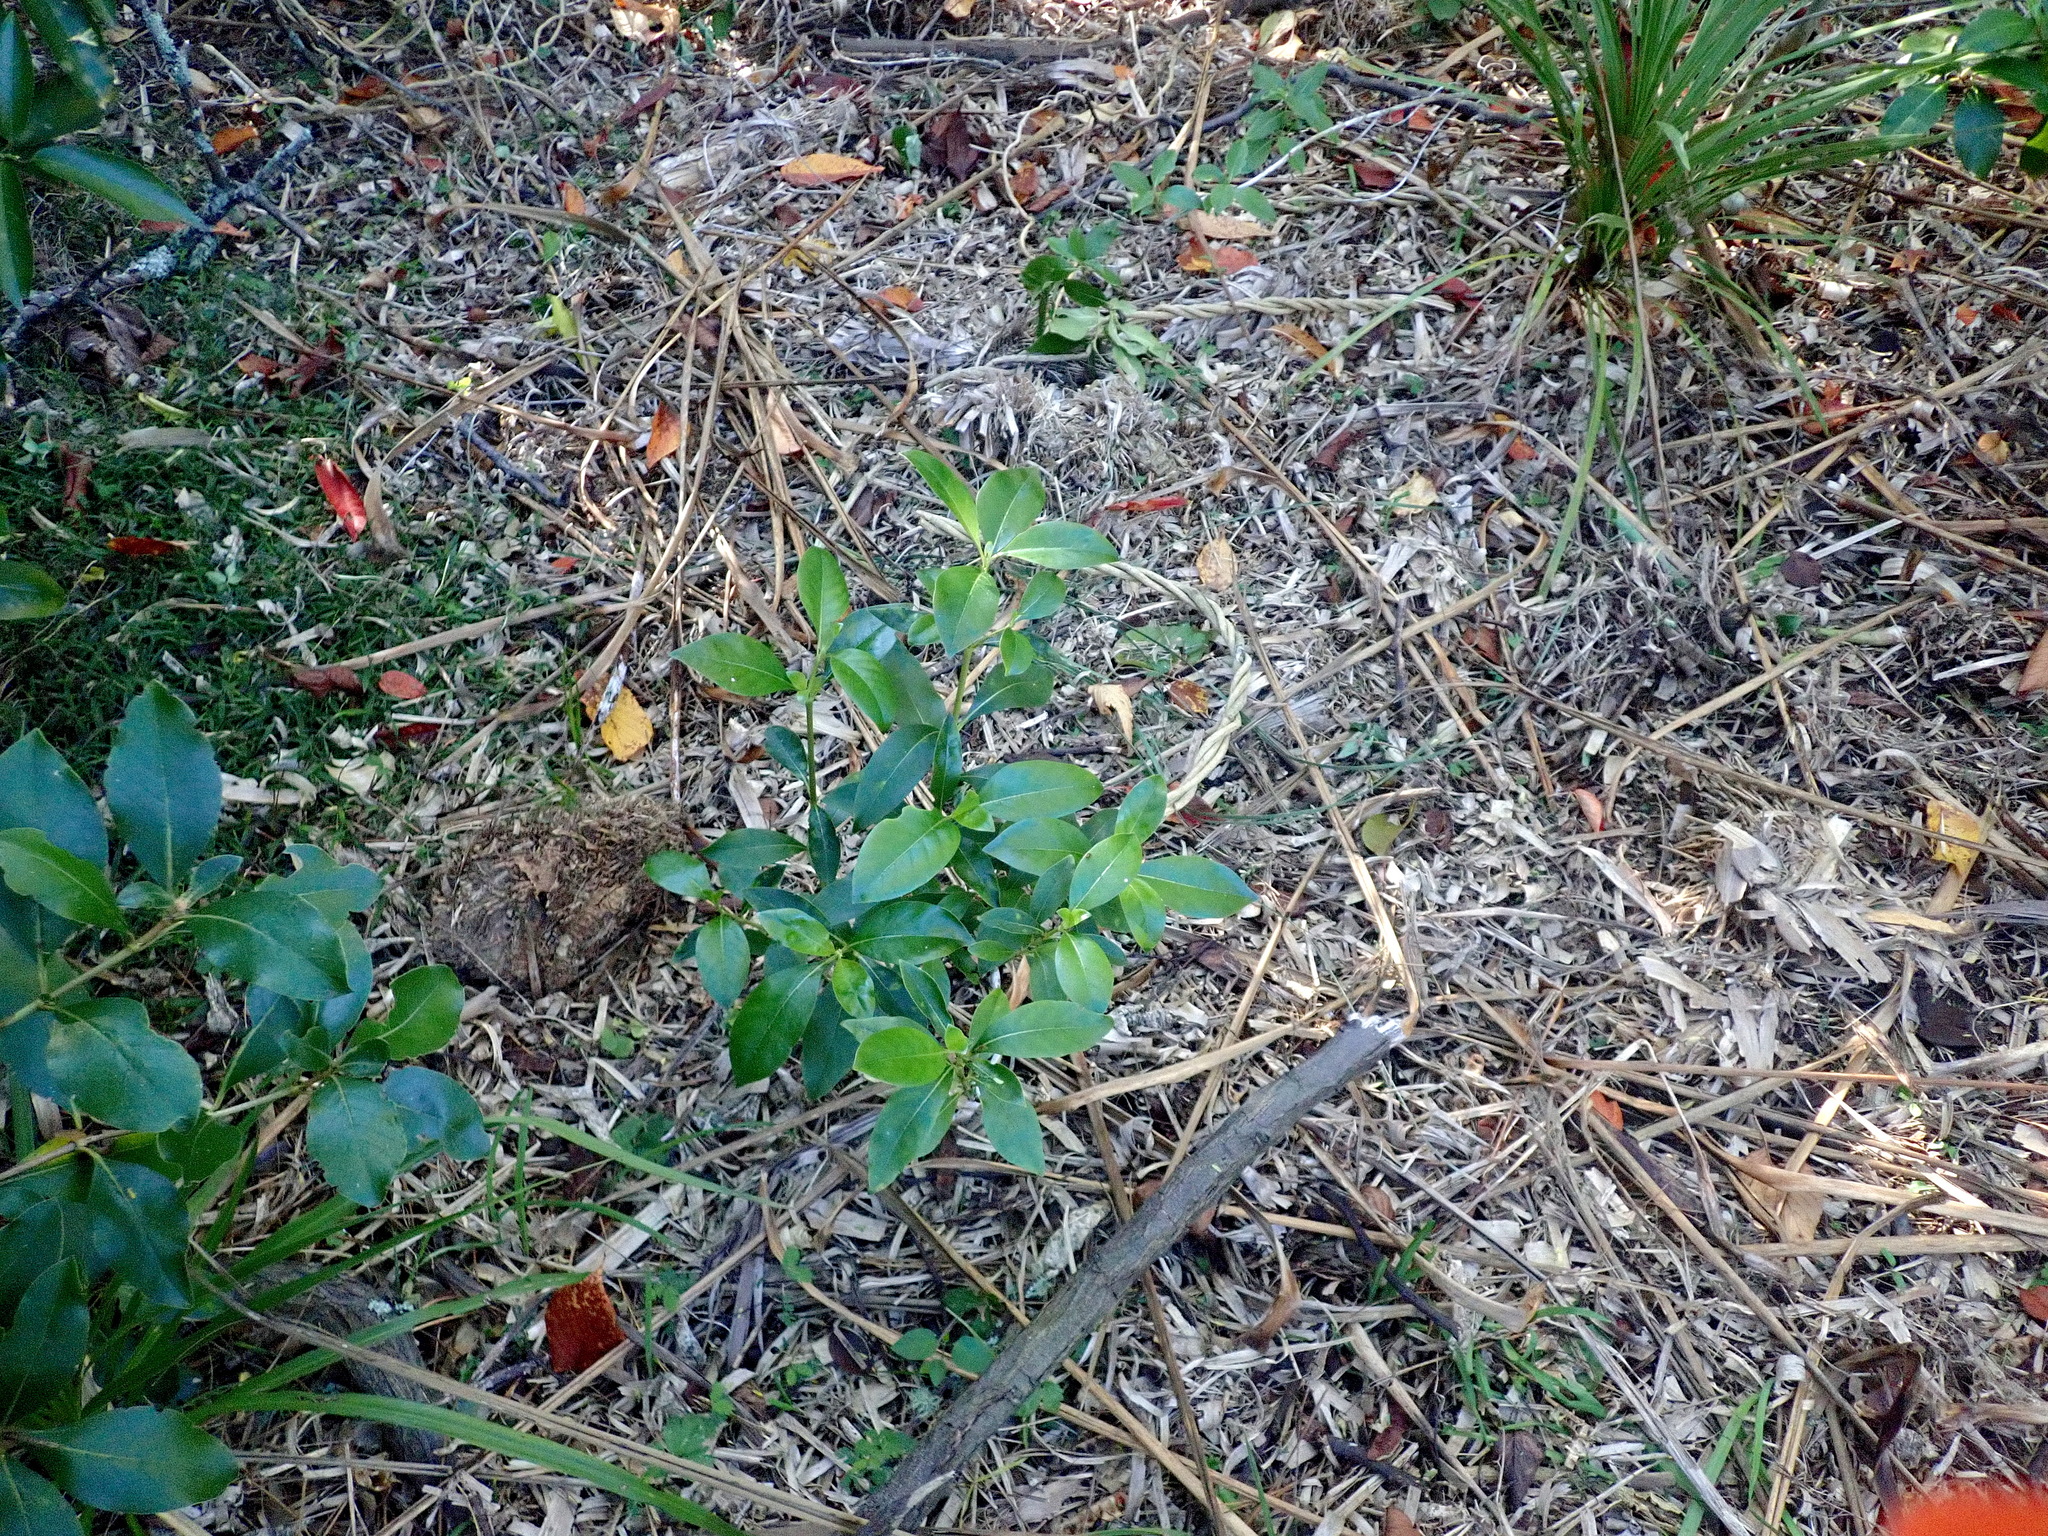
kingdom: Plantae
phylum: Tracheophyta
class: Magnoliopsida
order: Gentianales
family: Rubiaceae
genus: Coprosma
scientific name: Coprosma robusta
